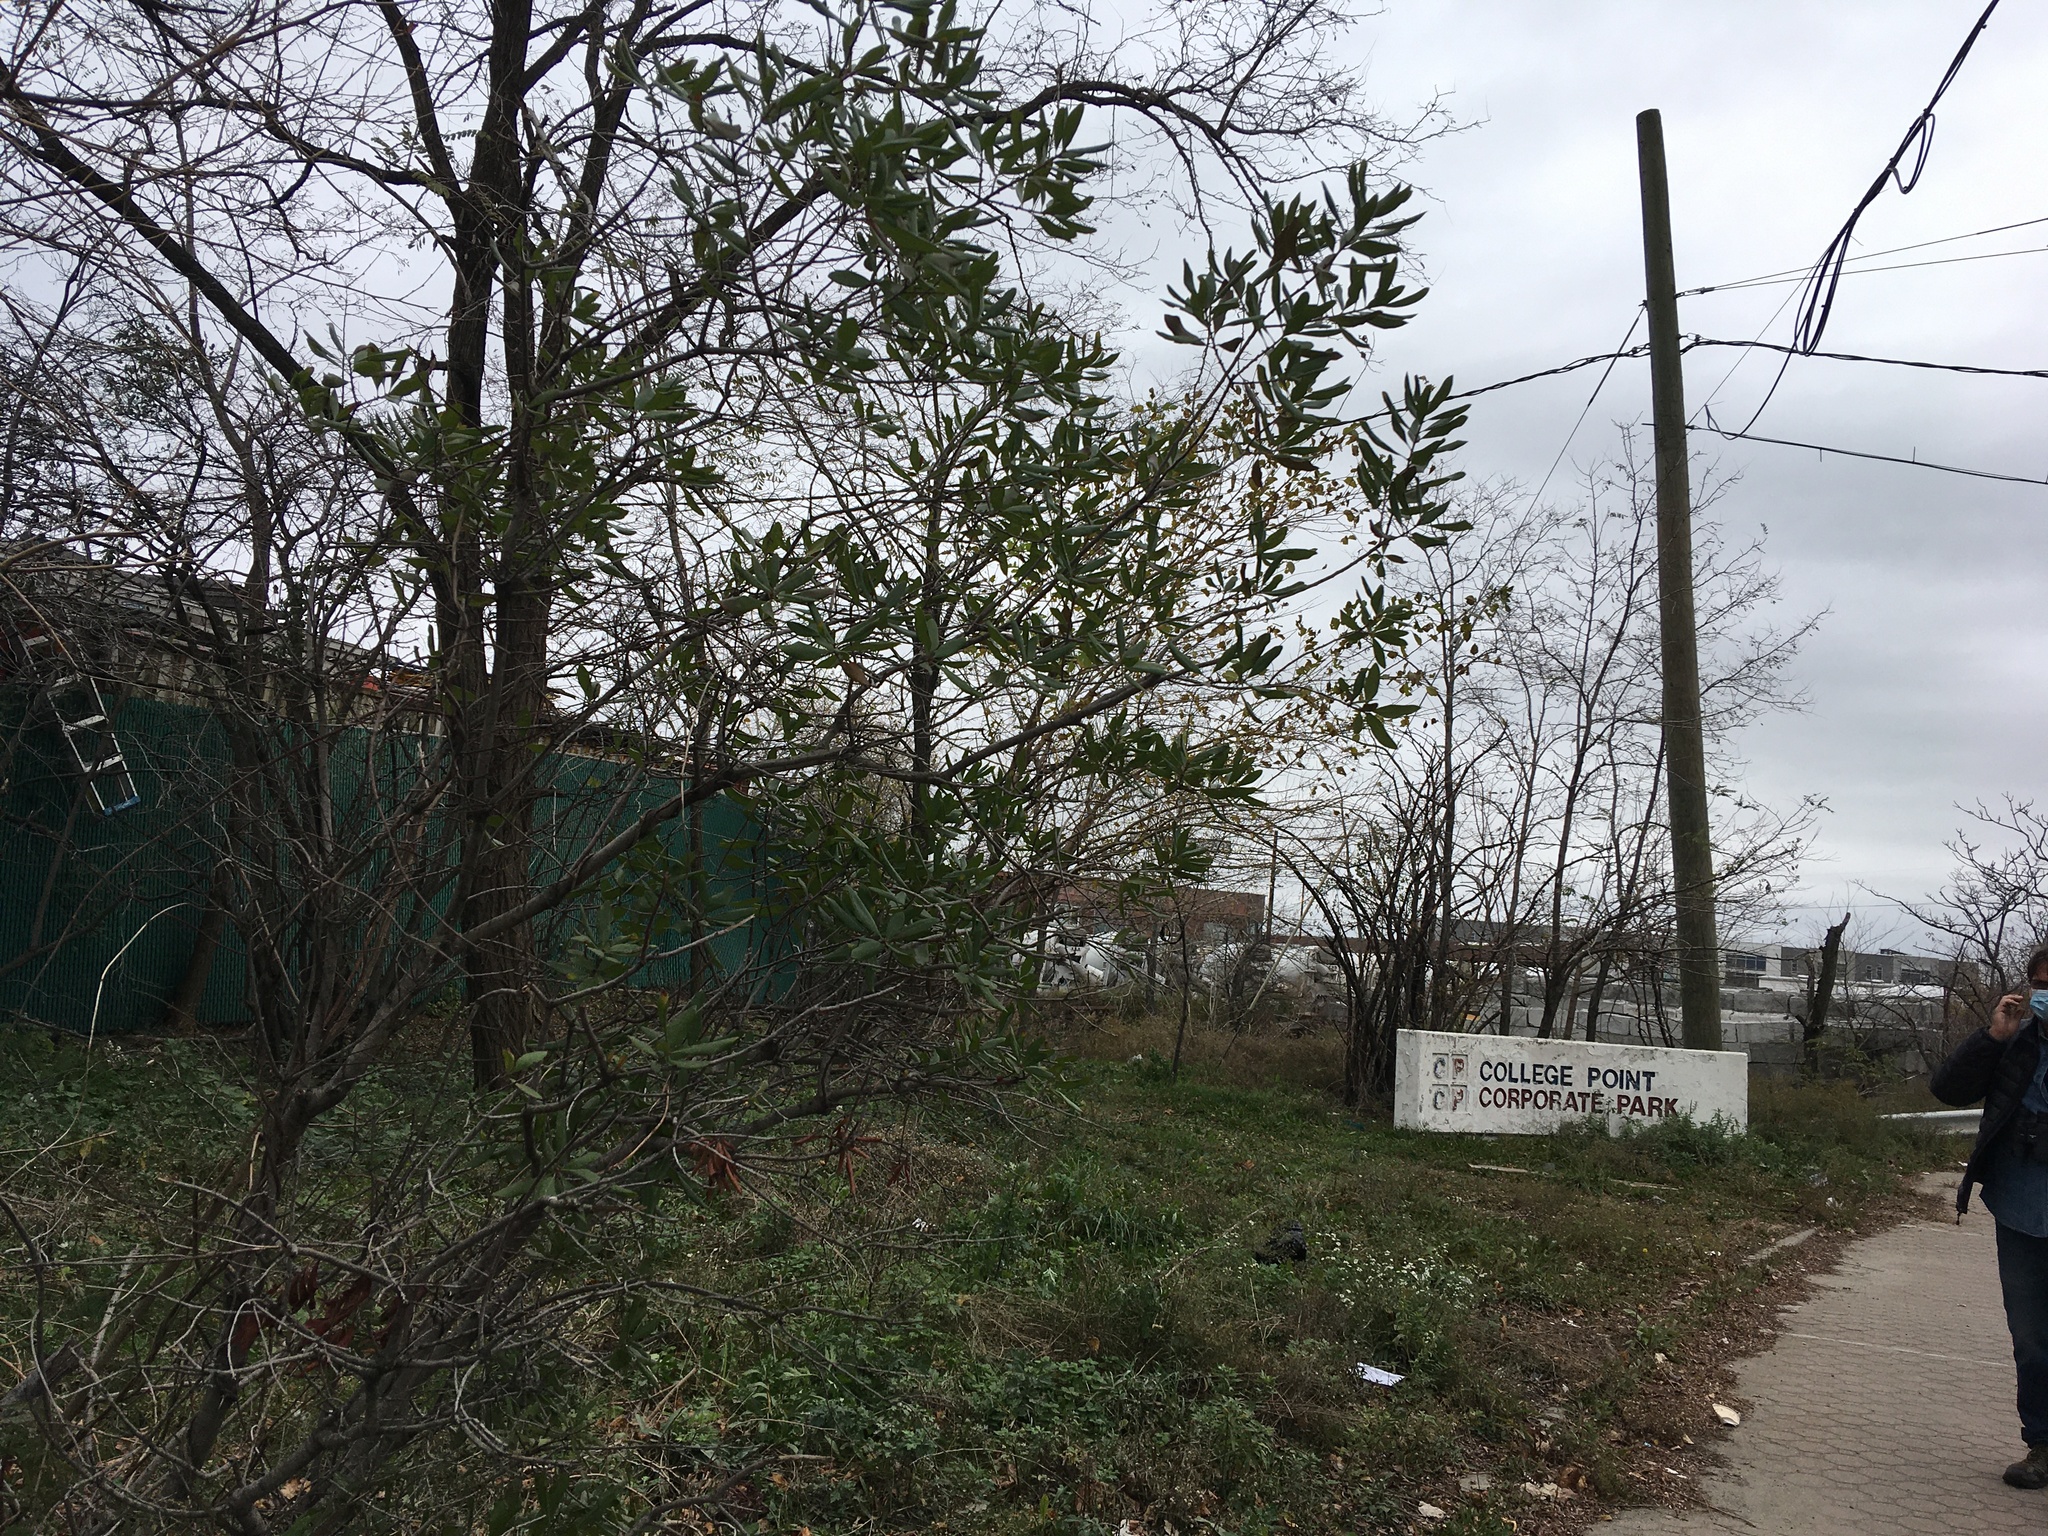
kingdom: Plantae
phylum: Tracheophyta
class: Magnoliopsida
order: Fagales
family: Myricaceae
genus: Morella
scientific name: Morella pensylvanica
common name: Northern bayberry
